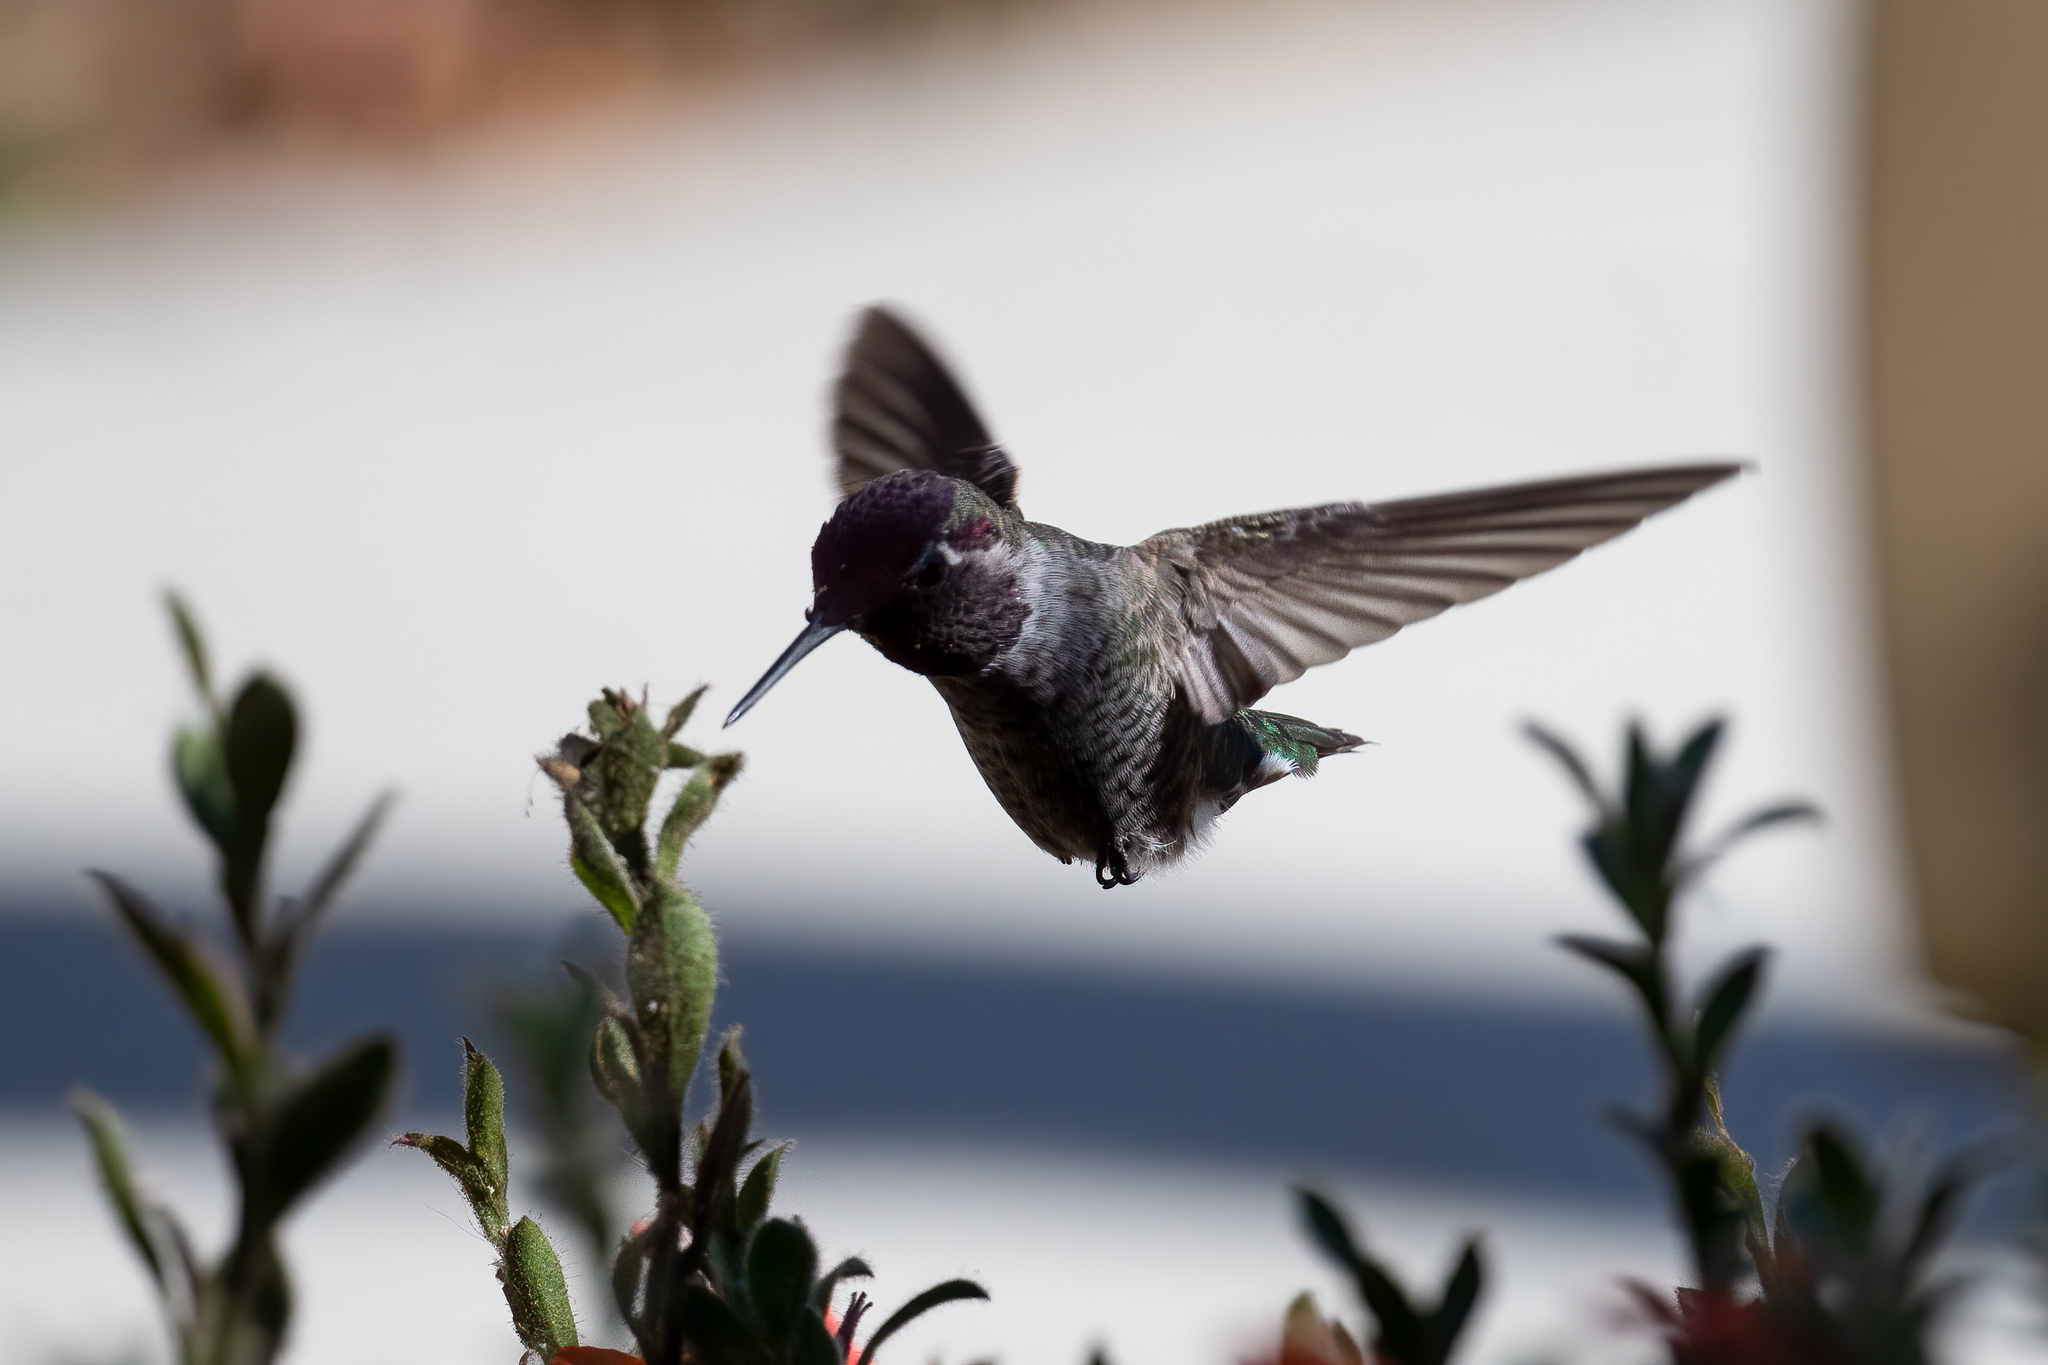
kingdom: Animalia
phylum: Chordata
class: Aves
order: Apodiformes
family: Trochilidae
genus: Calypte
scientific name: Calypte anna
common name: Anna's hummingbird
